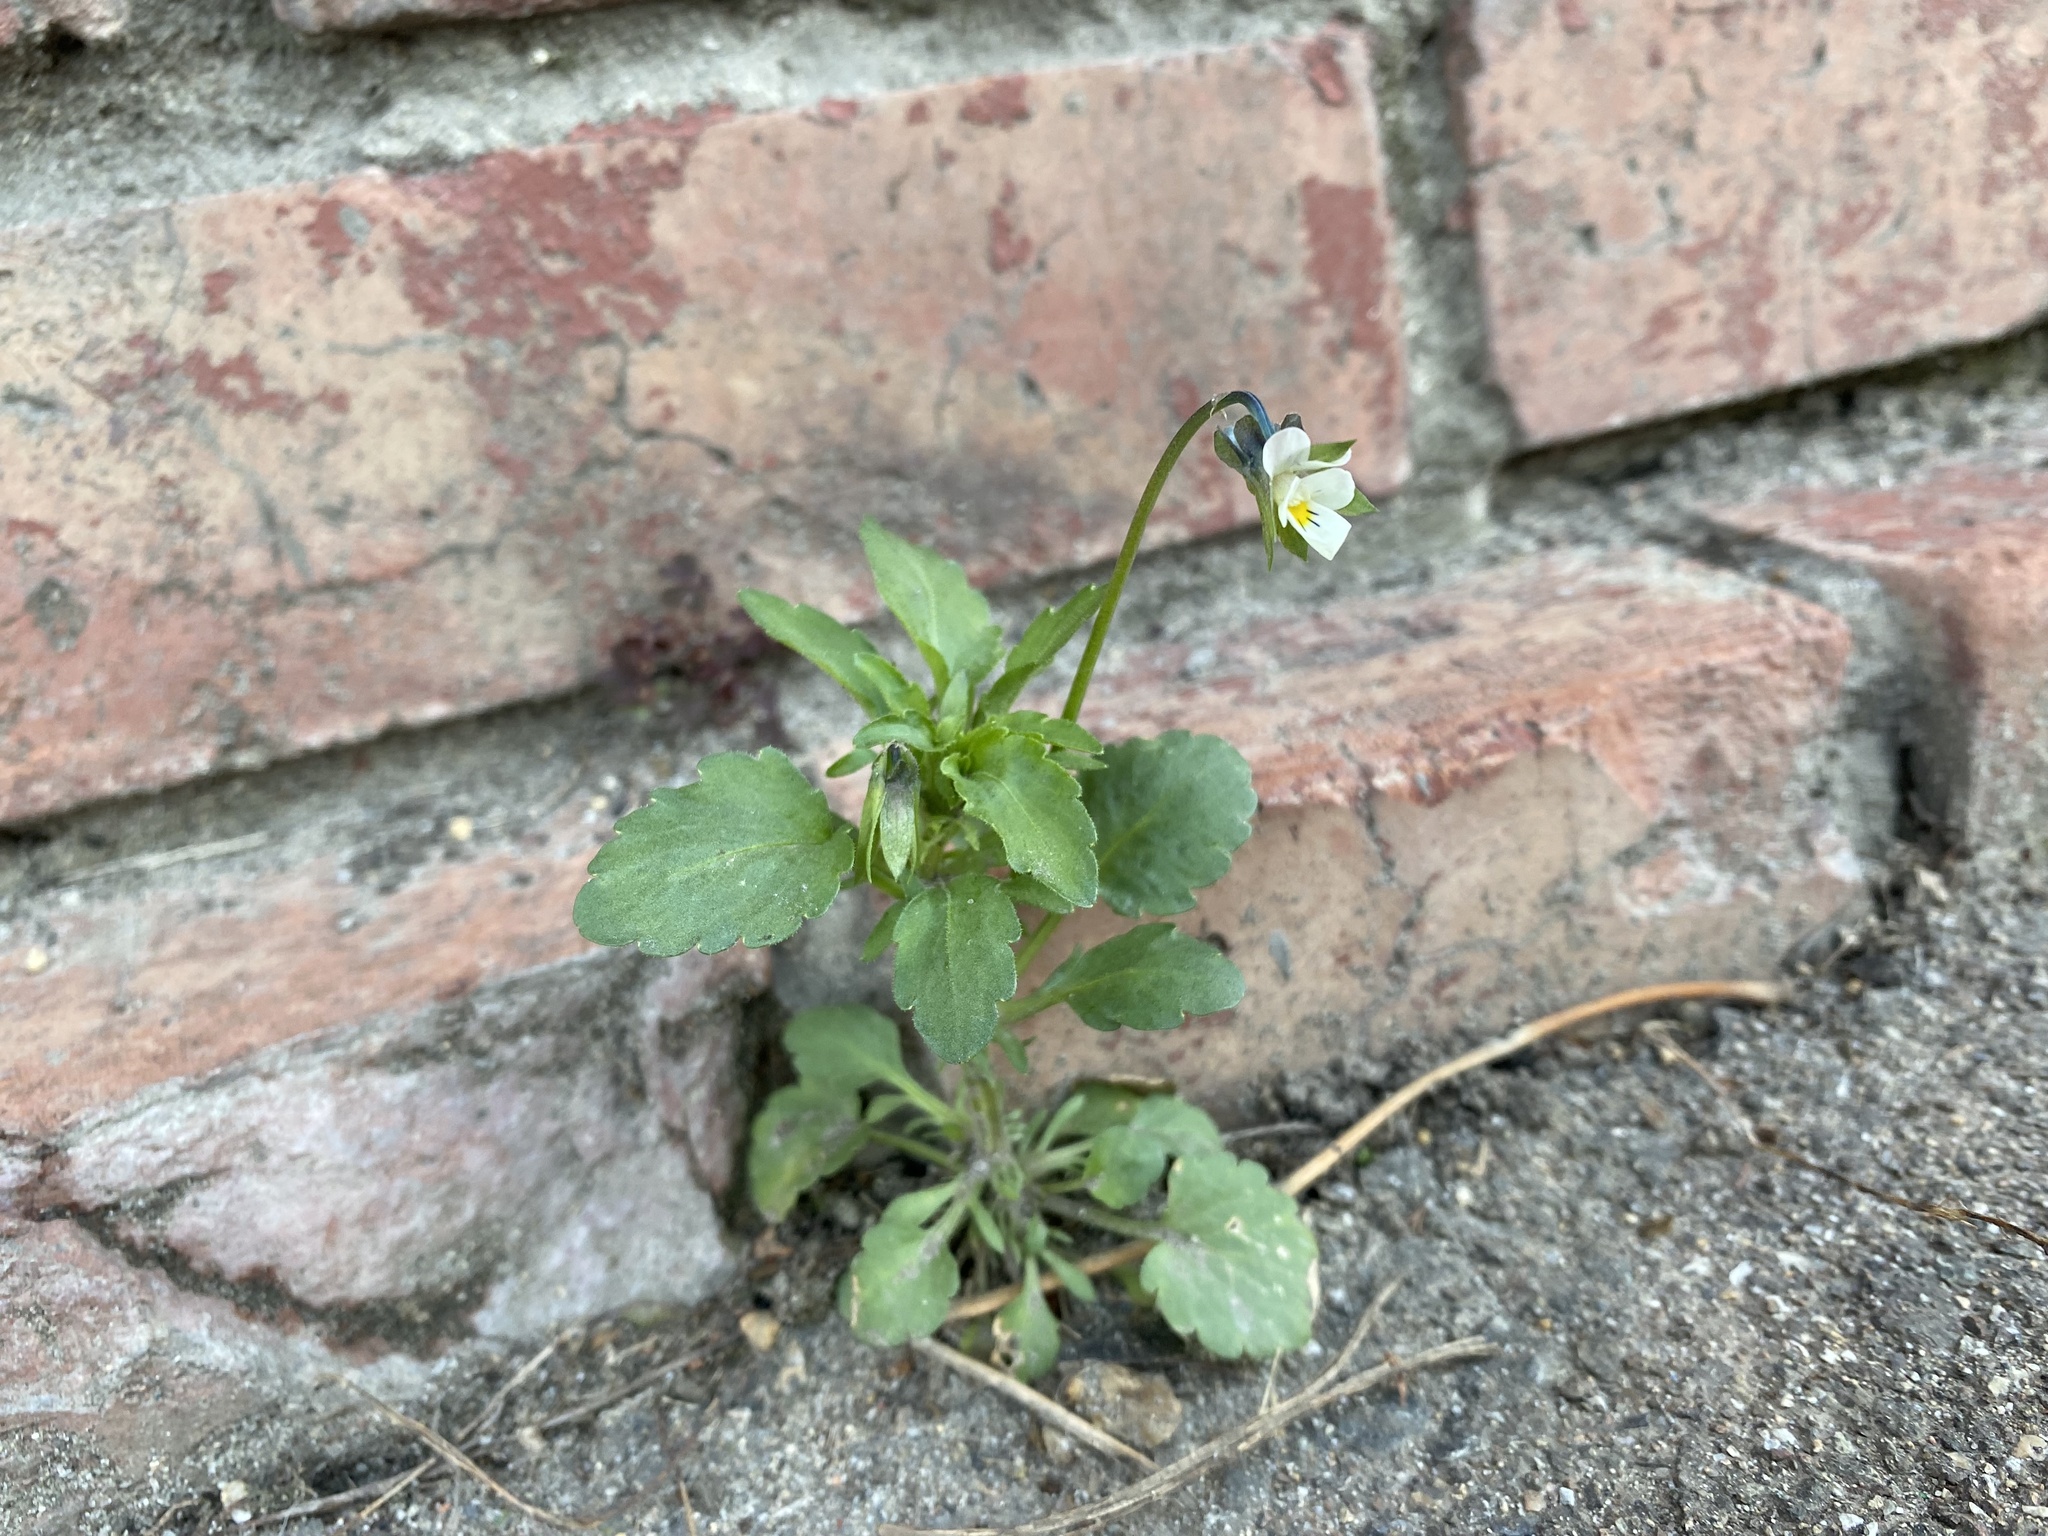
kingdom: Plantae
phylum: Tracheophyta
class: Magnoliopsida
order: Malpighiales
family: Violaceae
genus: Viola
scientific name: Viola arvensis
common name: Field pansy
